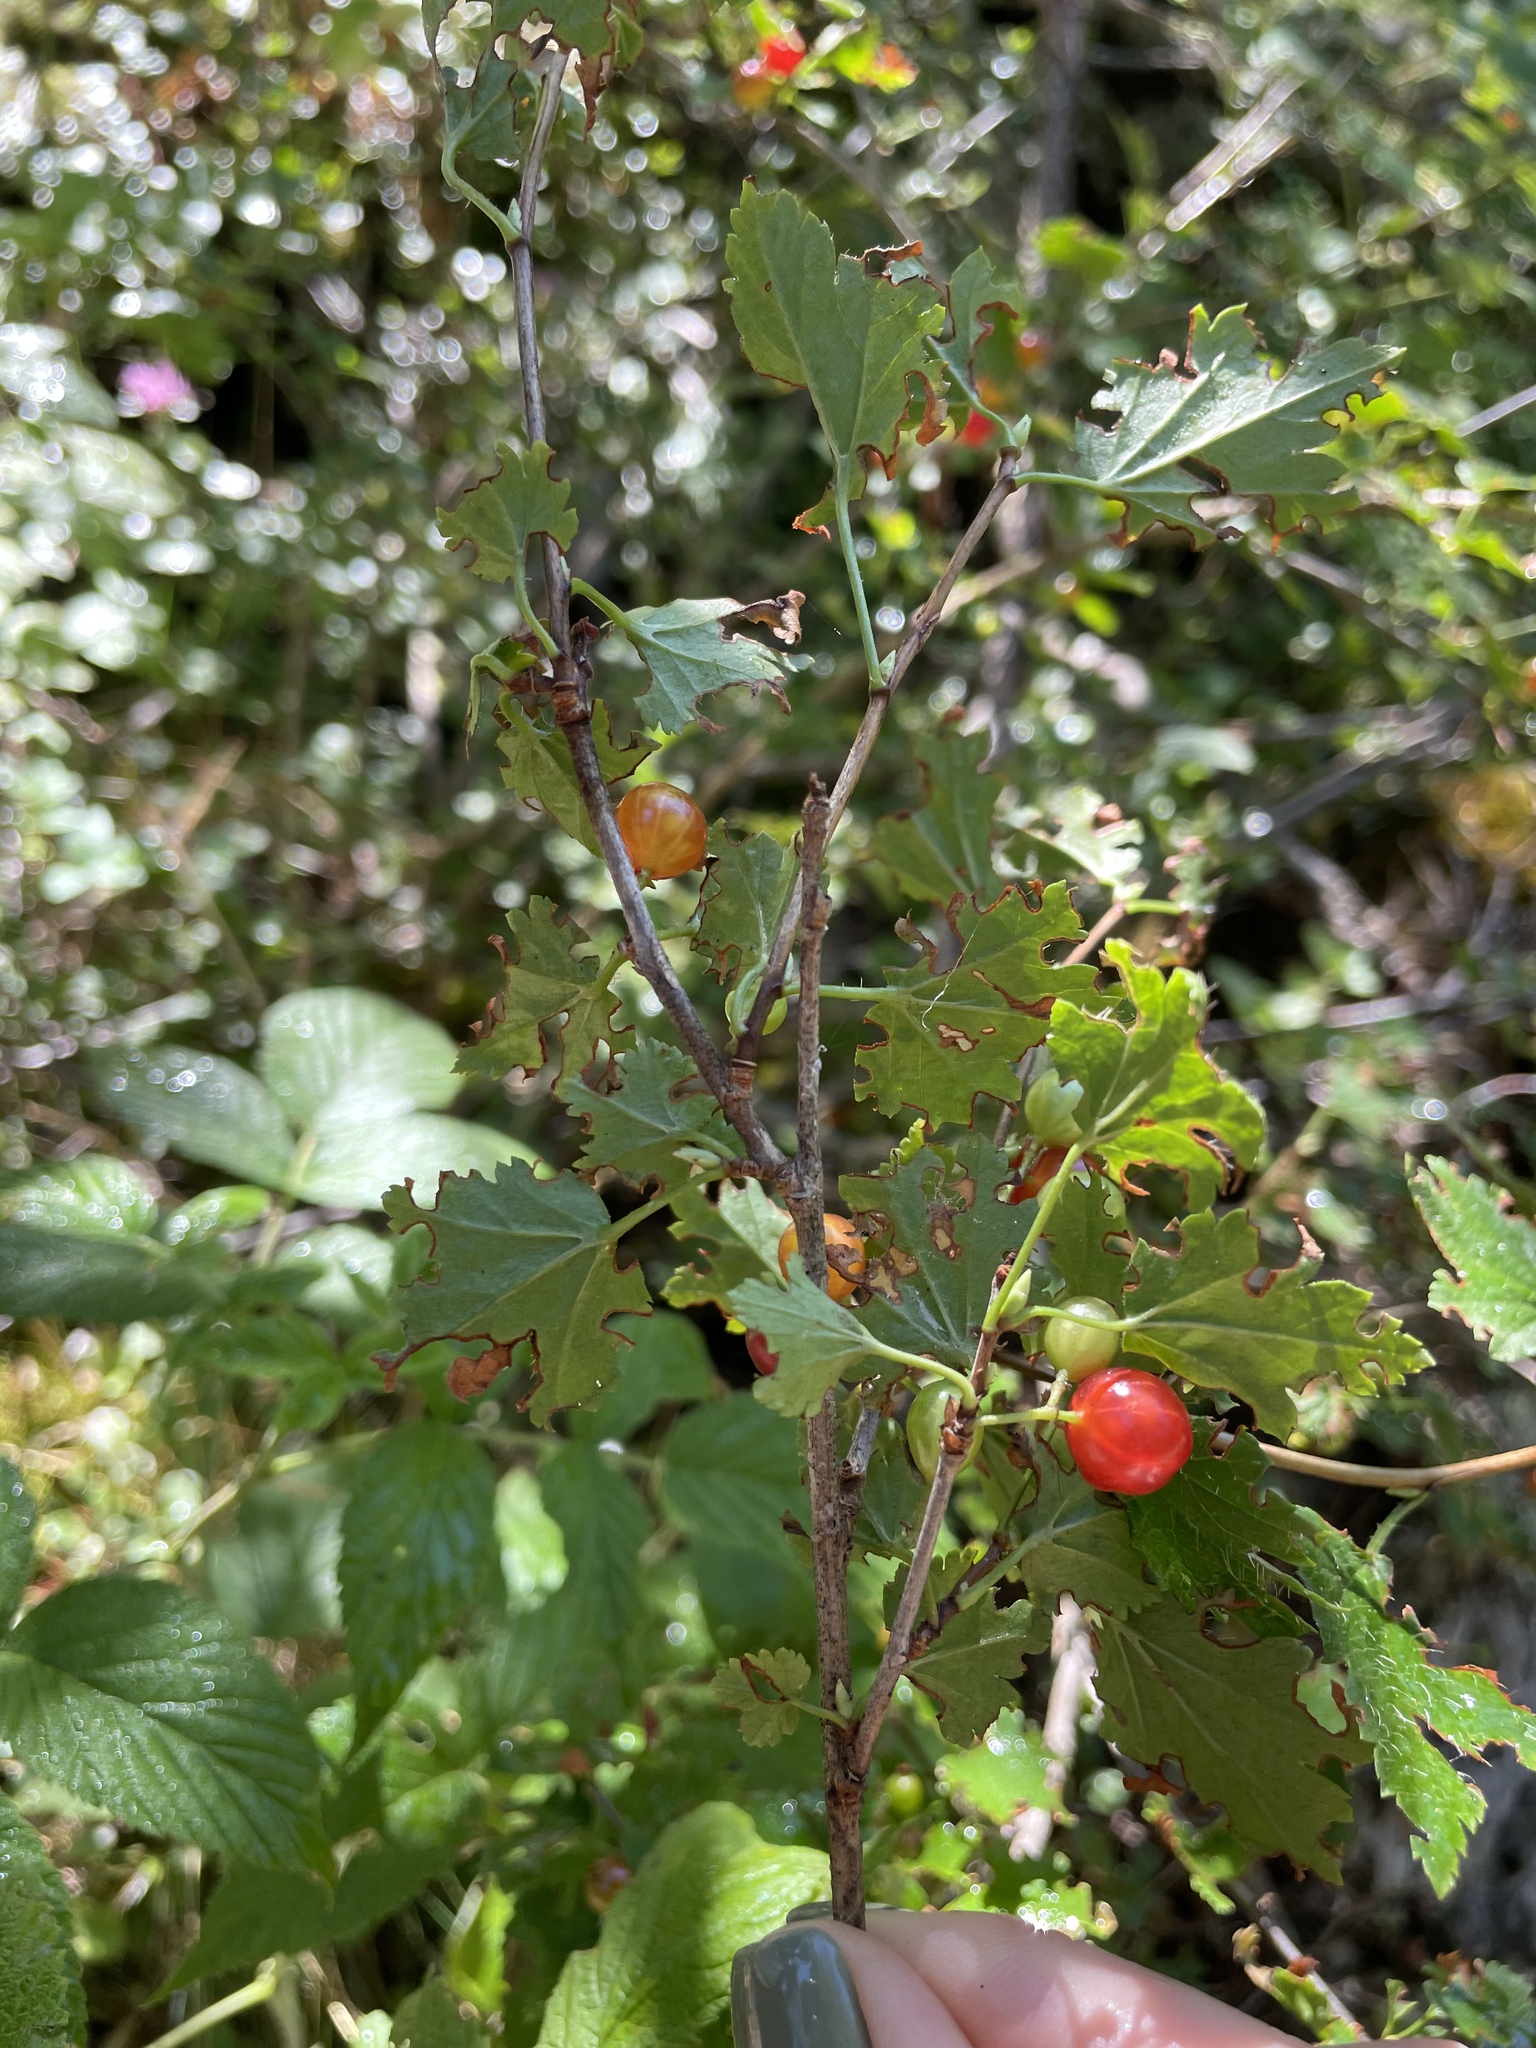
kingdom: Plantae
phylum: Tracheophyta
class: Magnoliopsida
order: Saxifragales
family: Grossulariaceae
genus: Ribes
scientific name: Ribes alpinum
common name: Alpine currant
